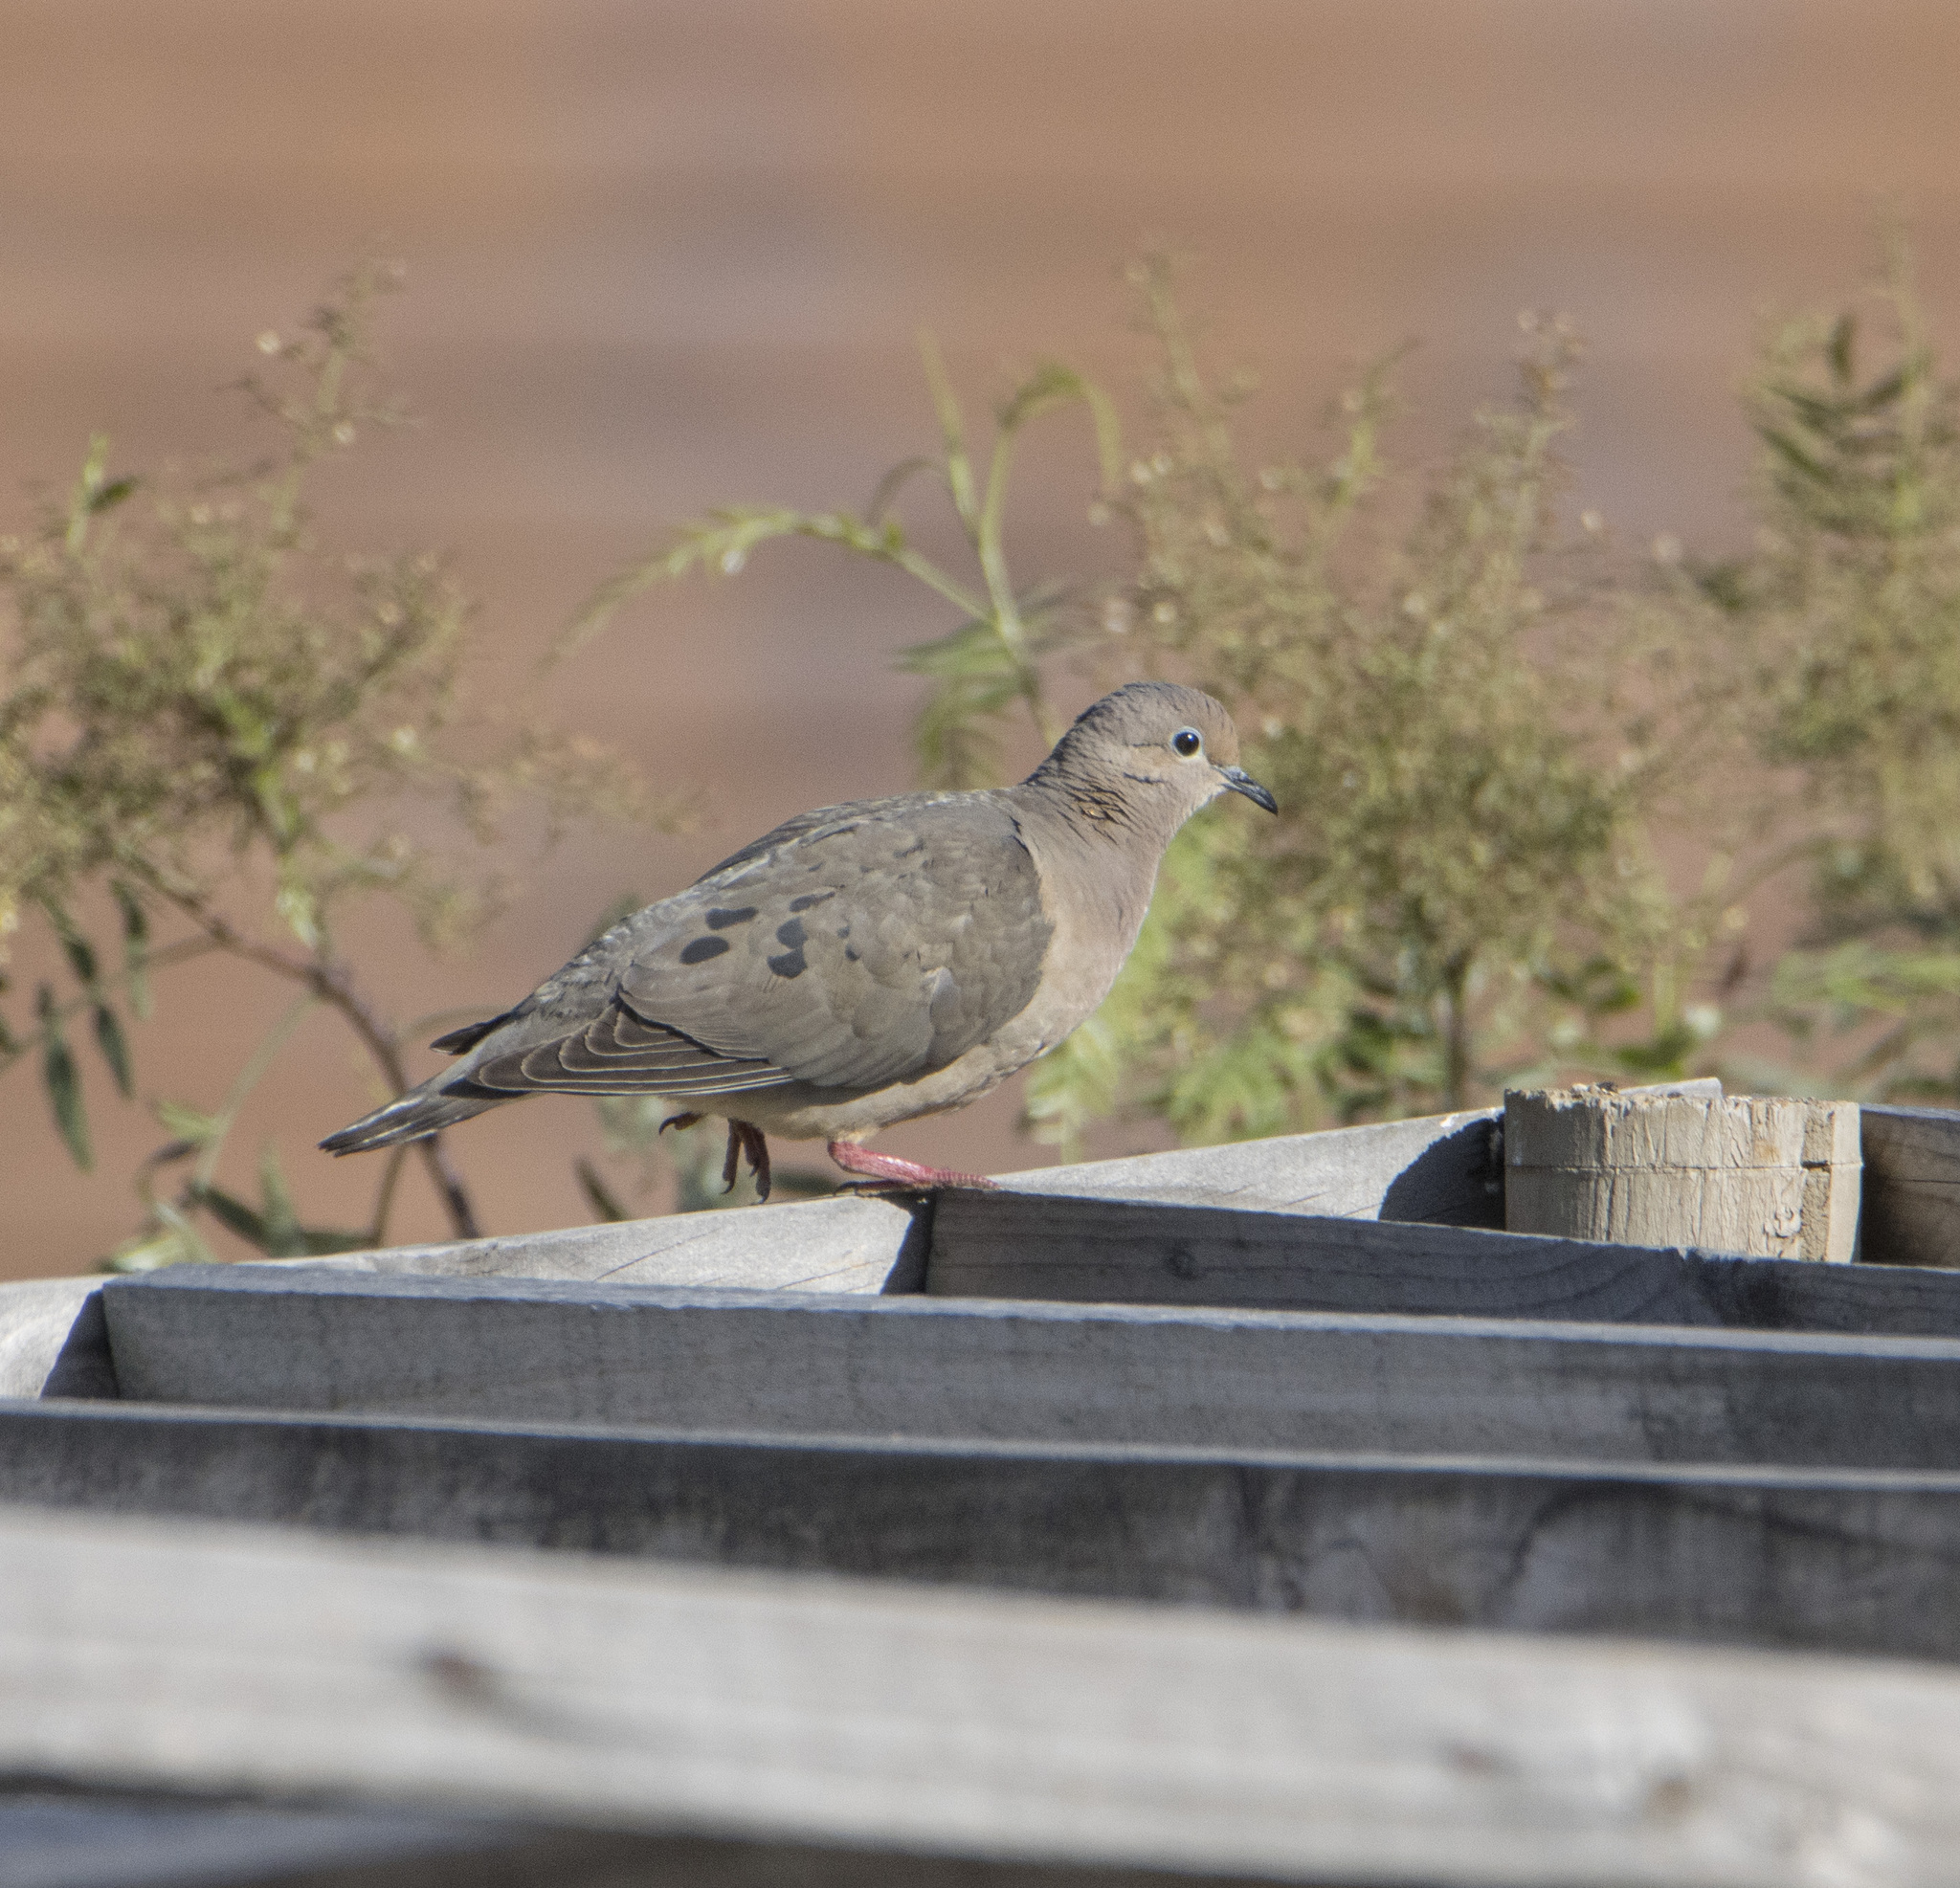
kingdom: Animalia
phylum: Chordata
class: Aves
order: Columbiformes
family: Columbidae
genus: Zenaida
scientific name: Zenaida auriculata
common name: Eared dove
